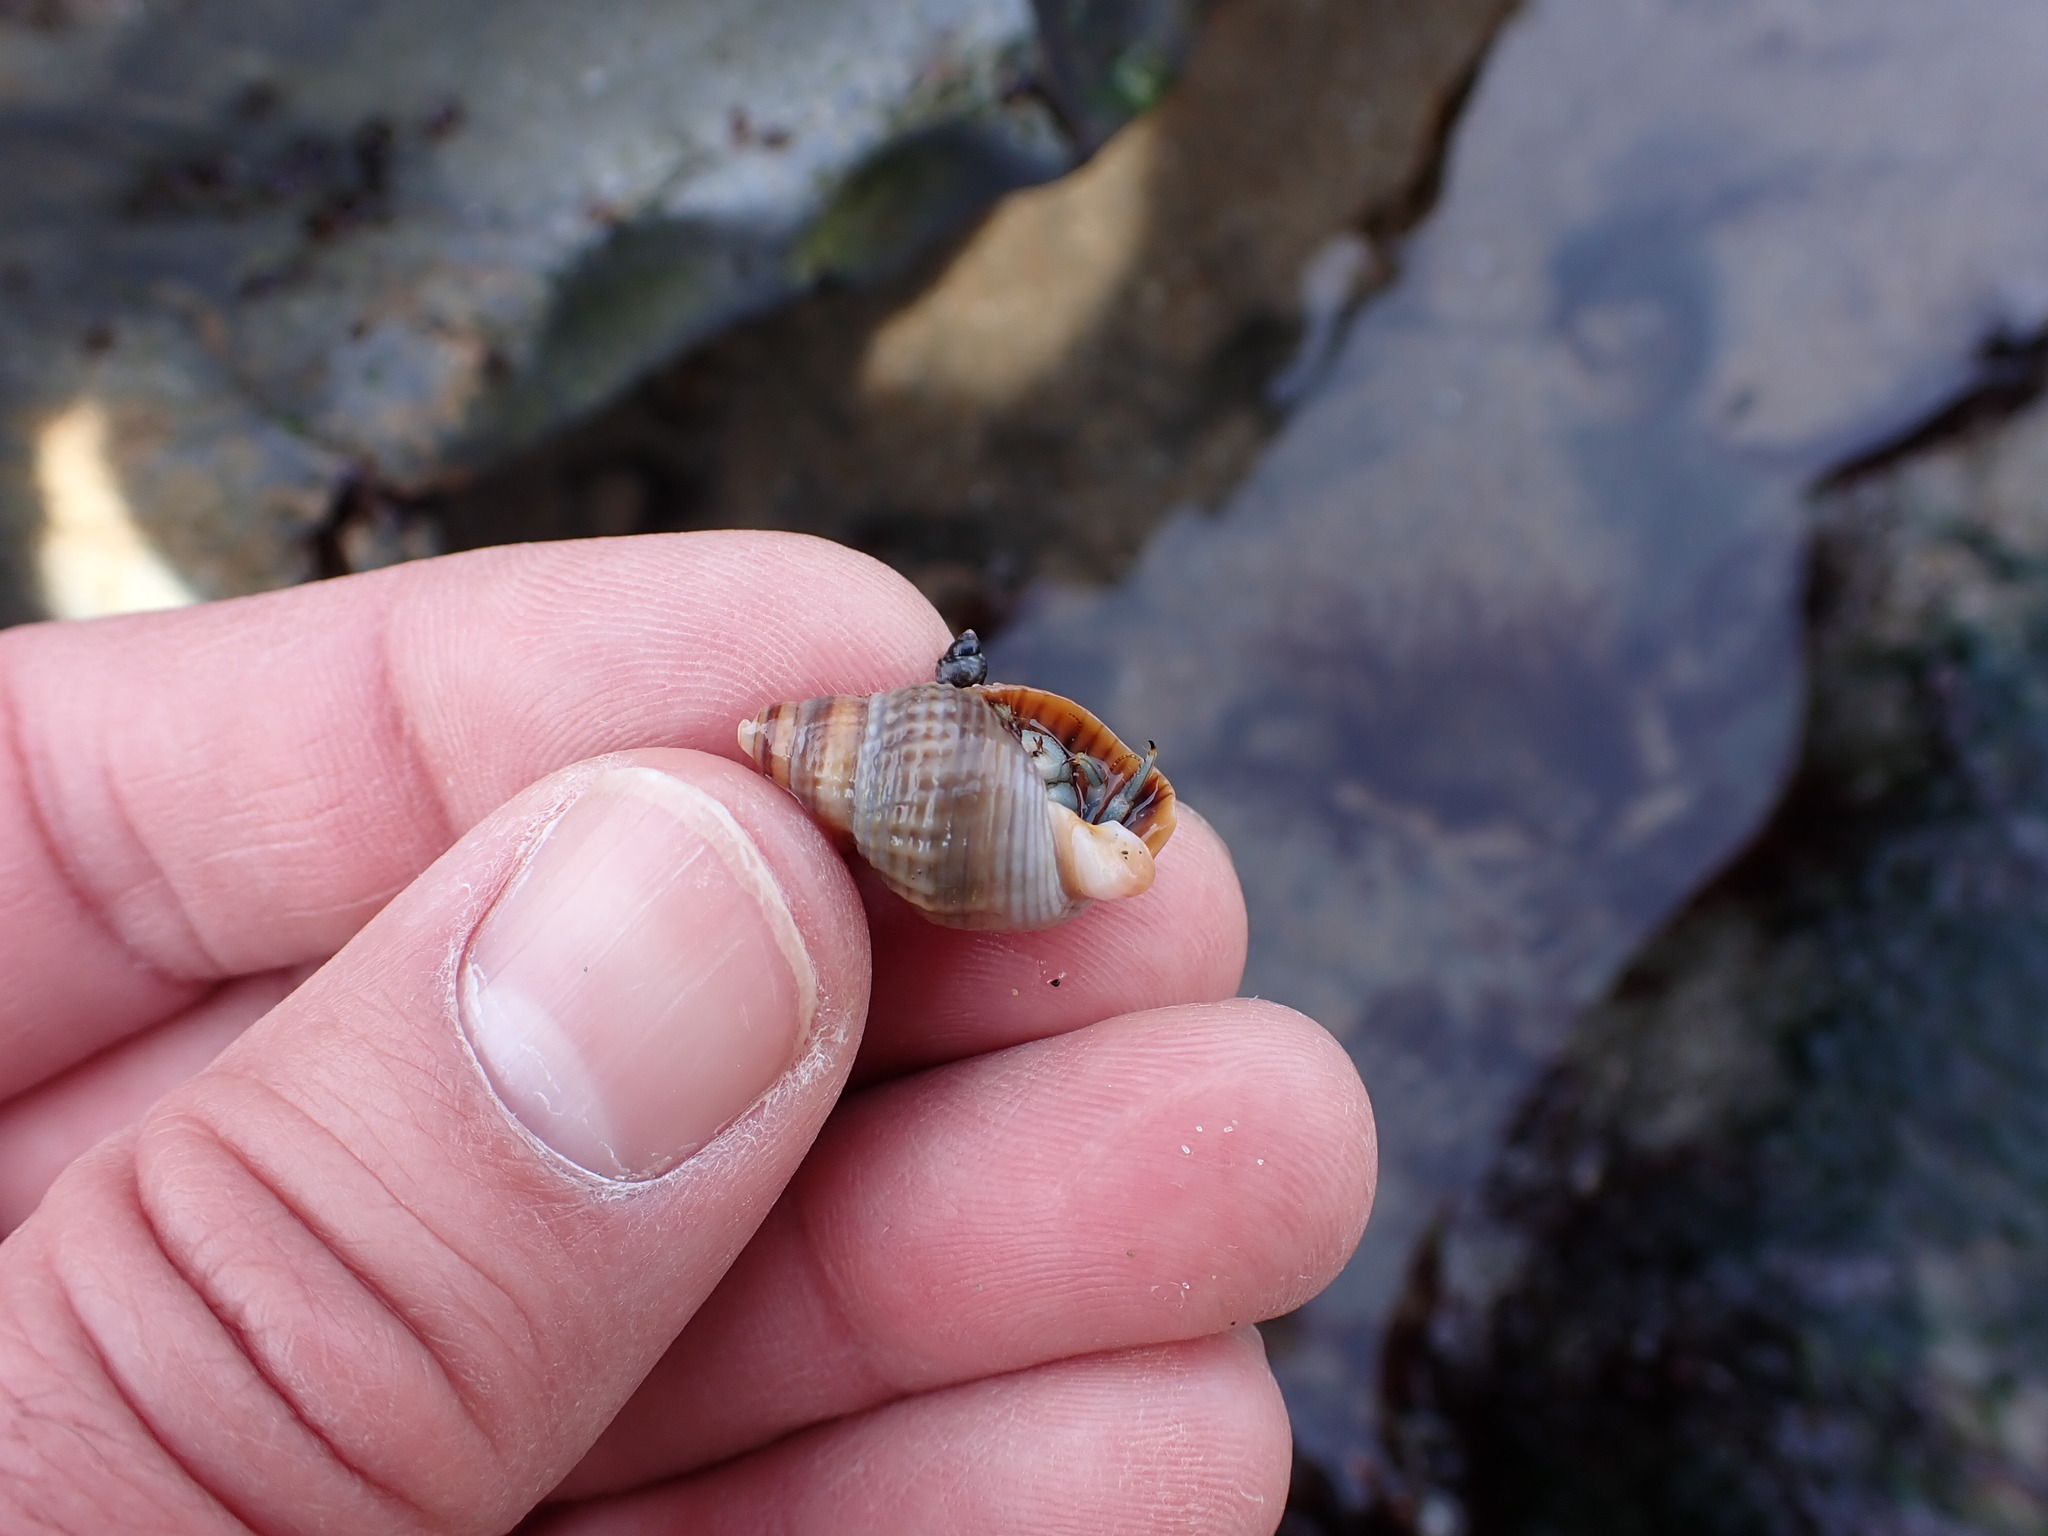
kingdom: Animalia
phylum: Mollusca
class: Gastropoda
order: Neogastropoda
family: Nassariidae
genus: Caesia
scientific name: Caesia fossata
